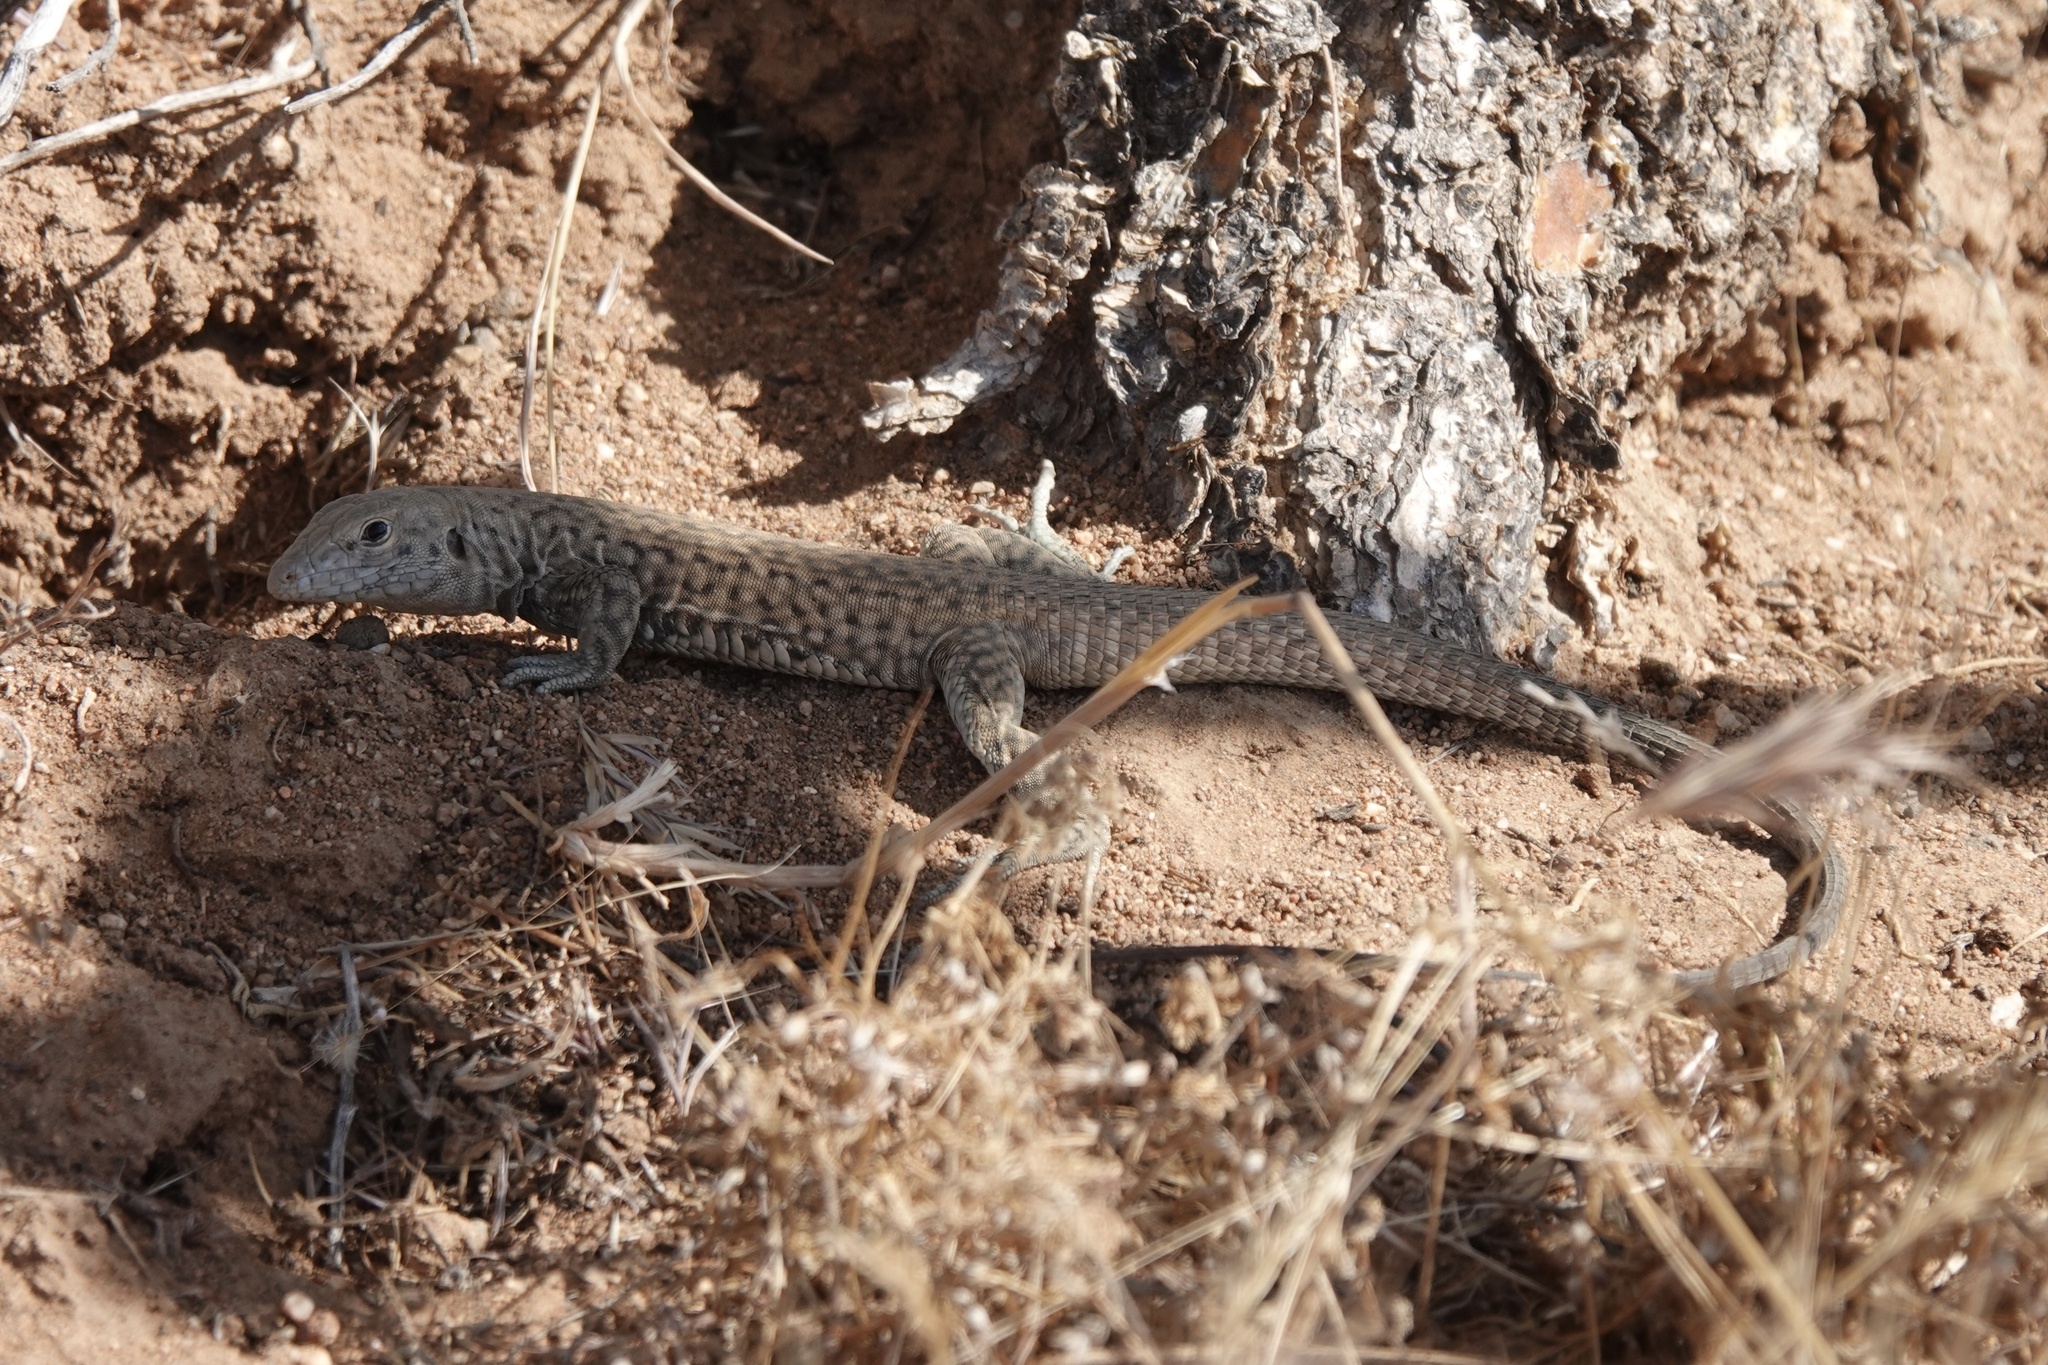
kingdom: Animalia
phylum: Chordata
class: Squamata
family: Teiidae
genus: Aspidoscelis
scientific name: Aspidoscelis tigris
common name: Tiger whiptail
